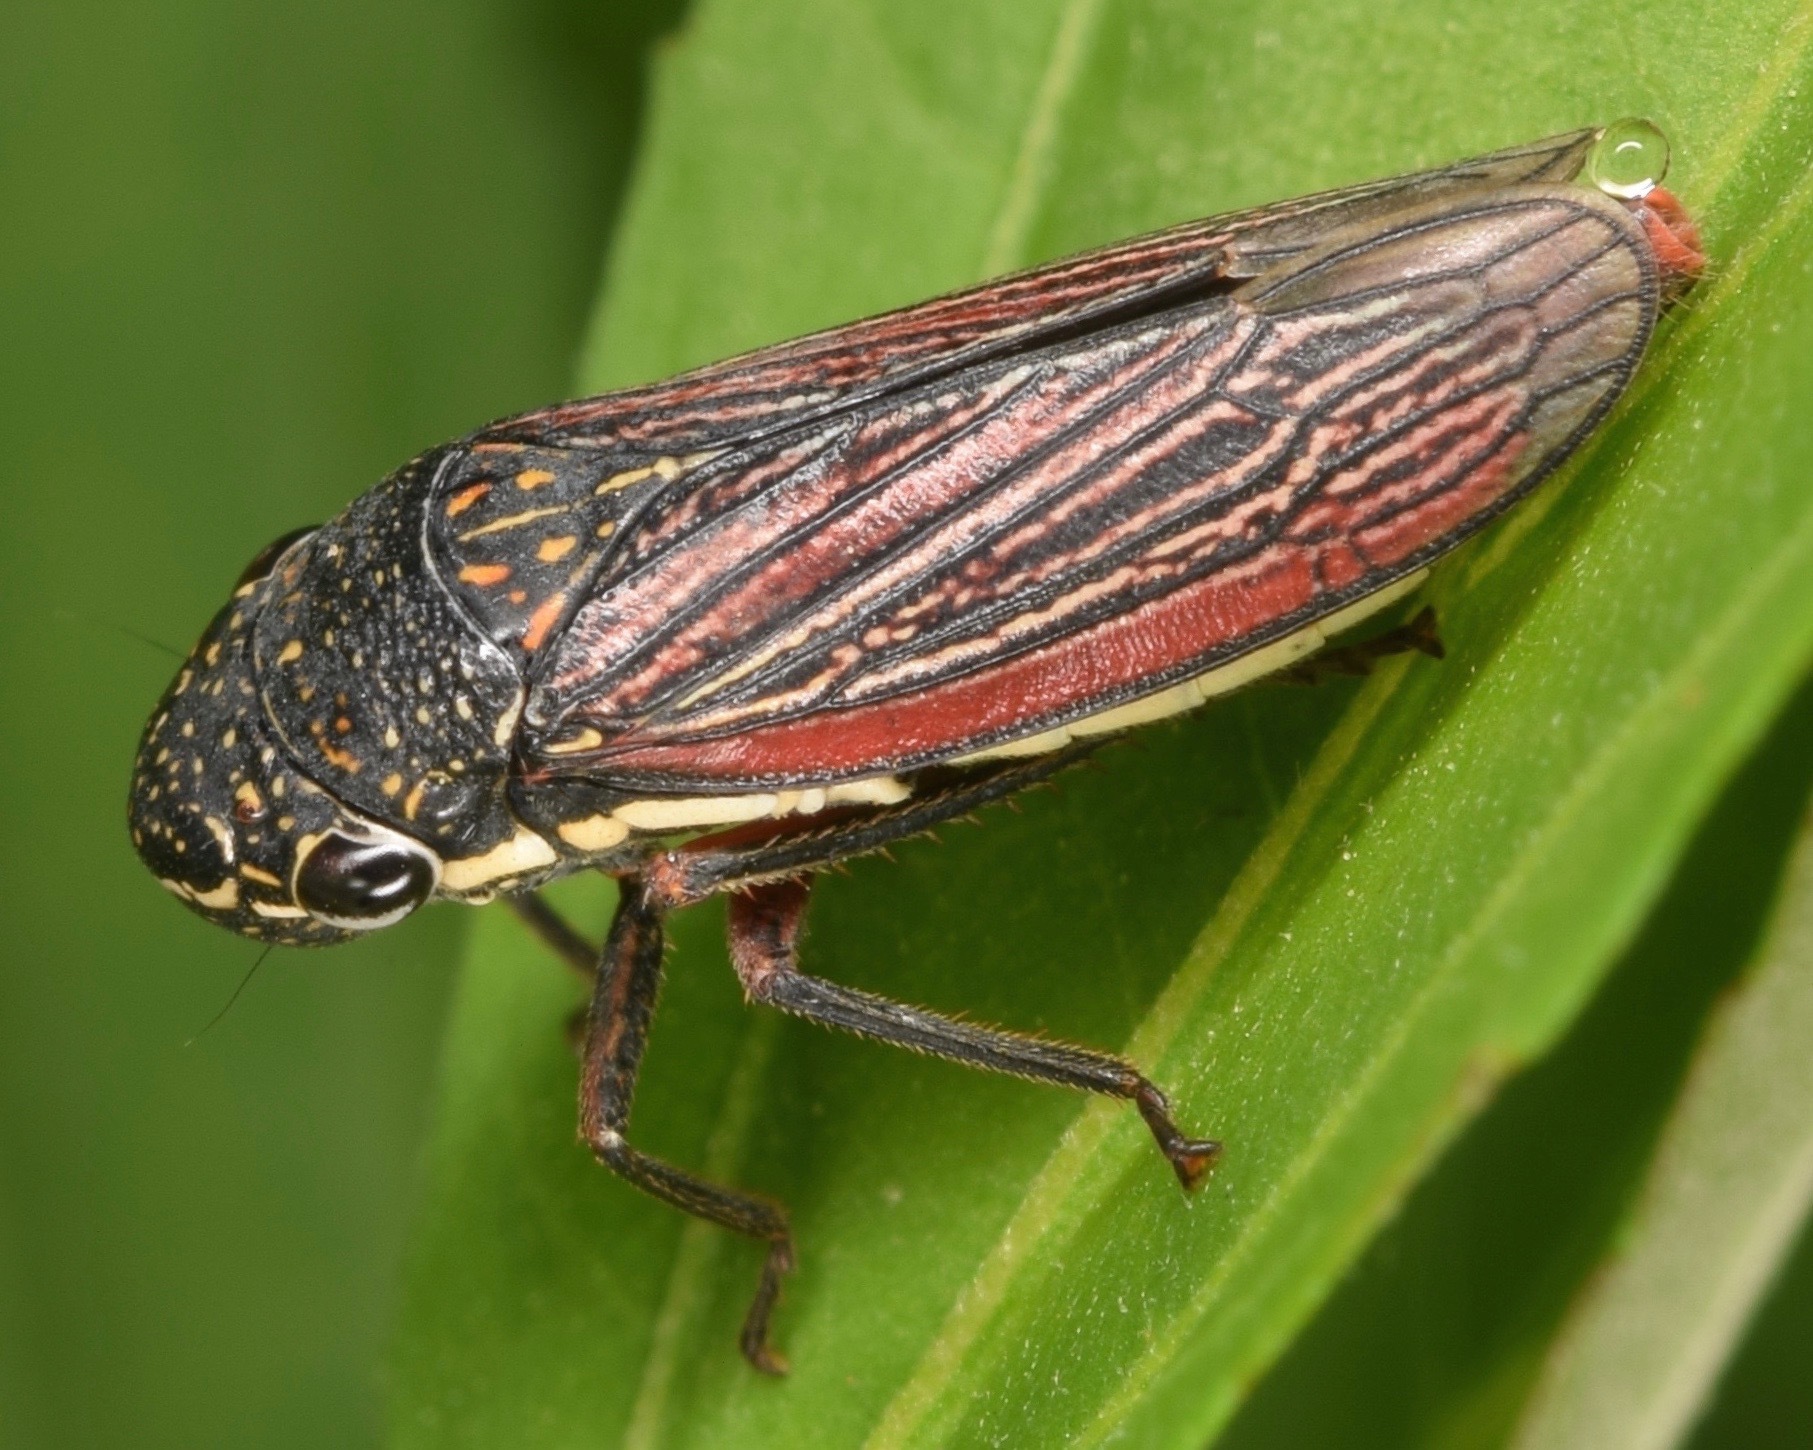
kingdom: Animalia
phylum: Arthropoda
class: Insecta
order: Hemiptera
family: Cicadellidae
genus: Cuerna
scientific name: Cuerna costalis
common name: Lateral-lined sharpshooter
